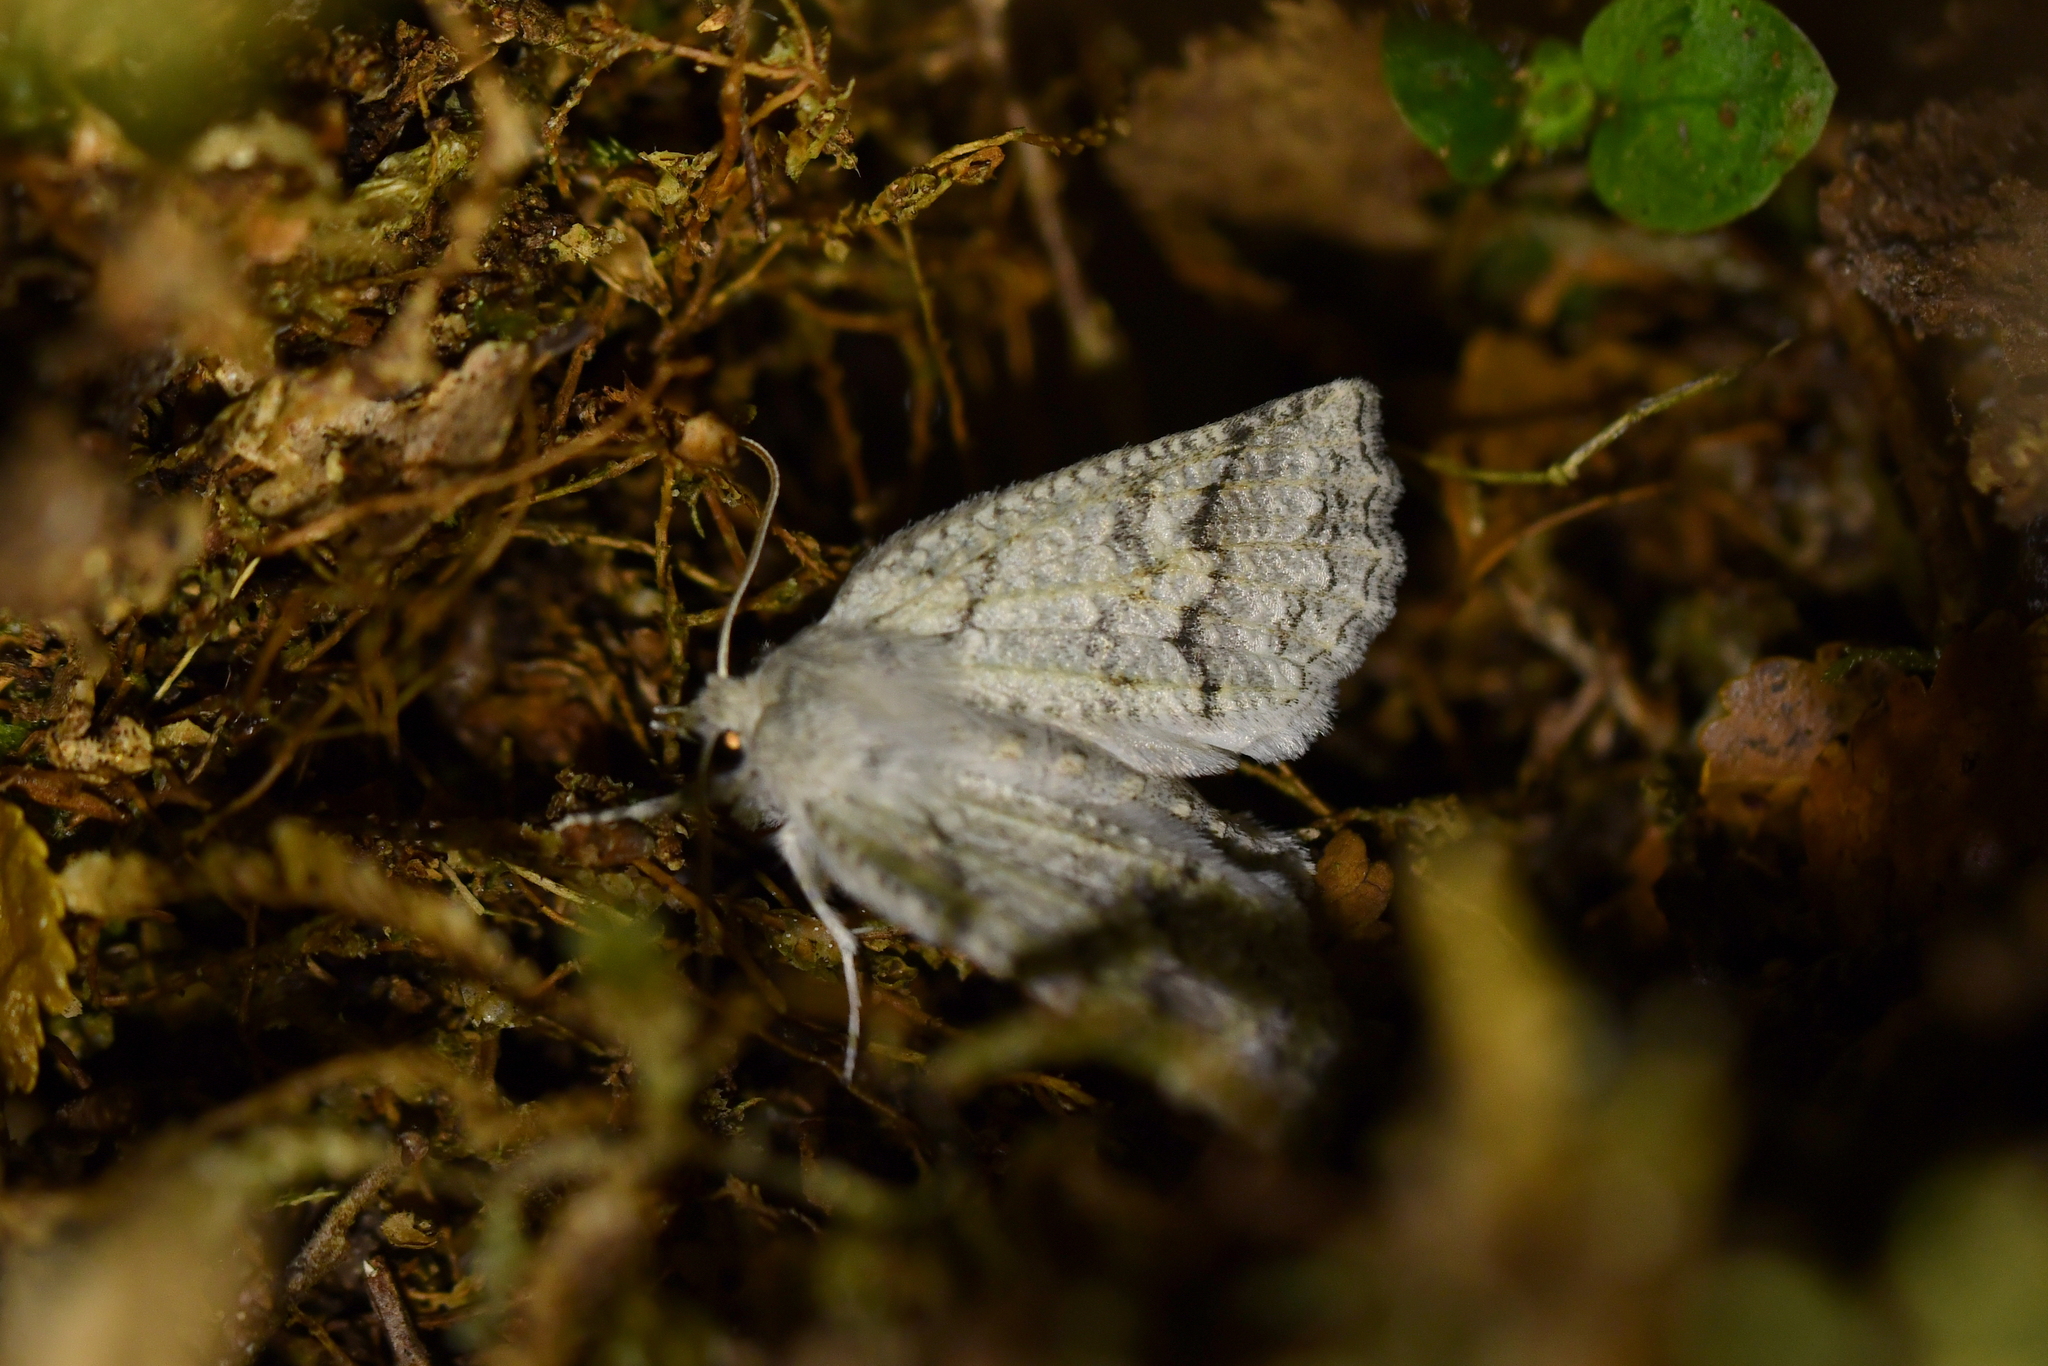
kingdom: Animalia
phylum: Arthropoda
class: Insecta
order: Lepidoptera
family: Geometridae
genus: Declana
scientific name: Declana floccosa
